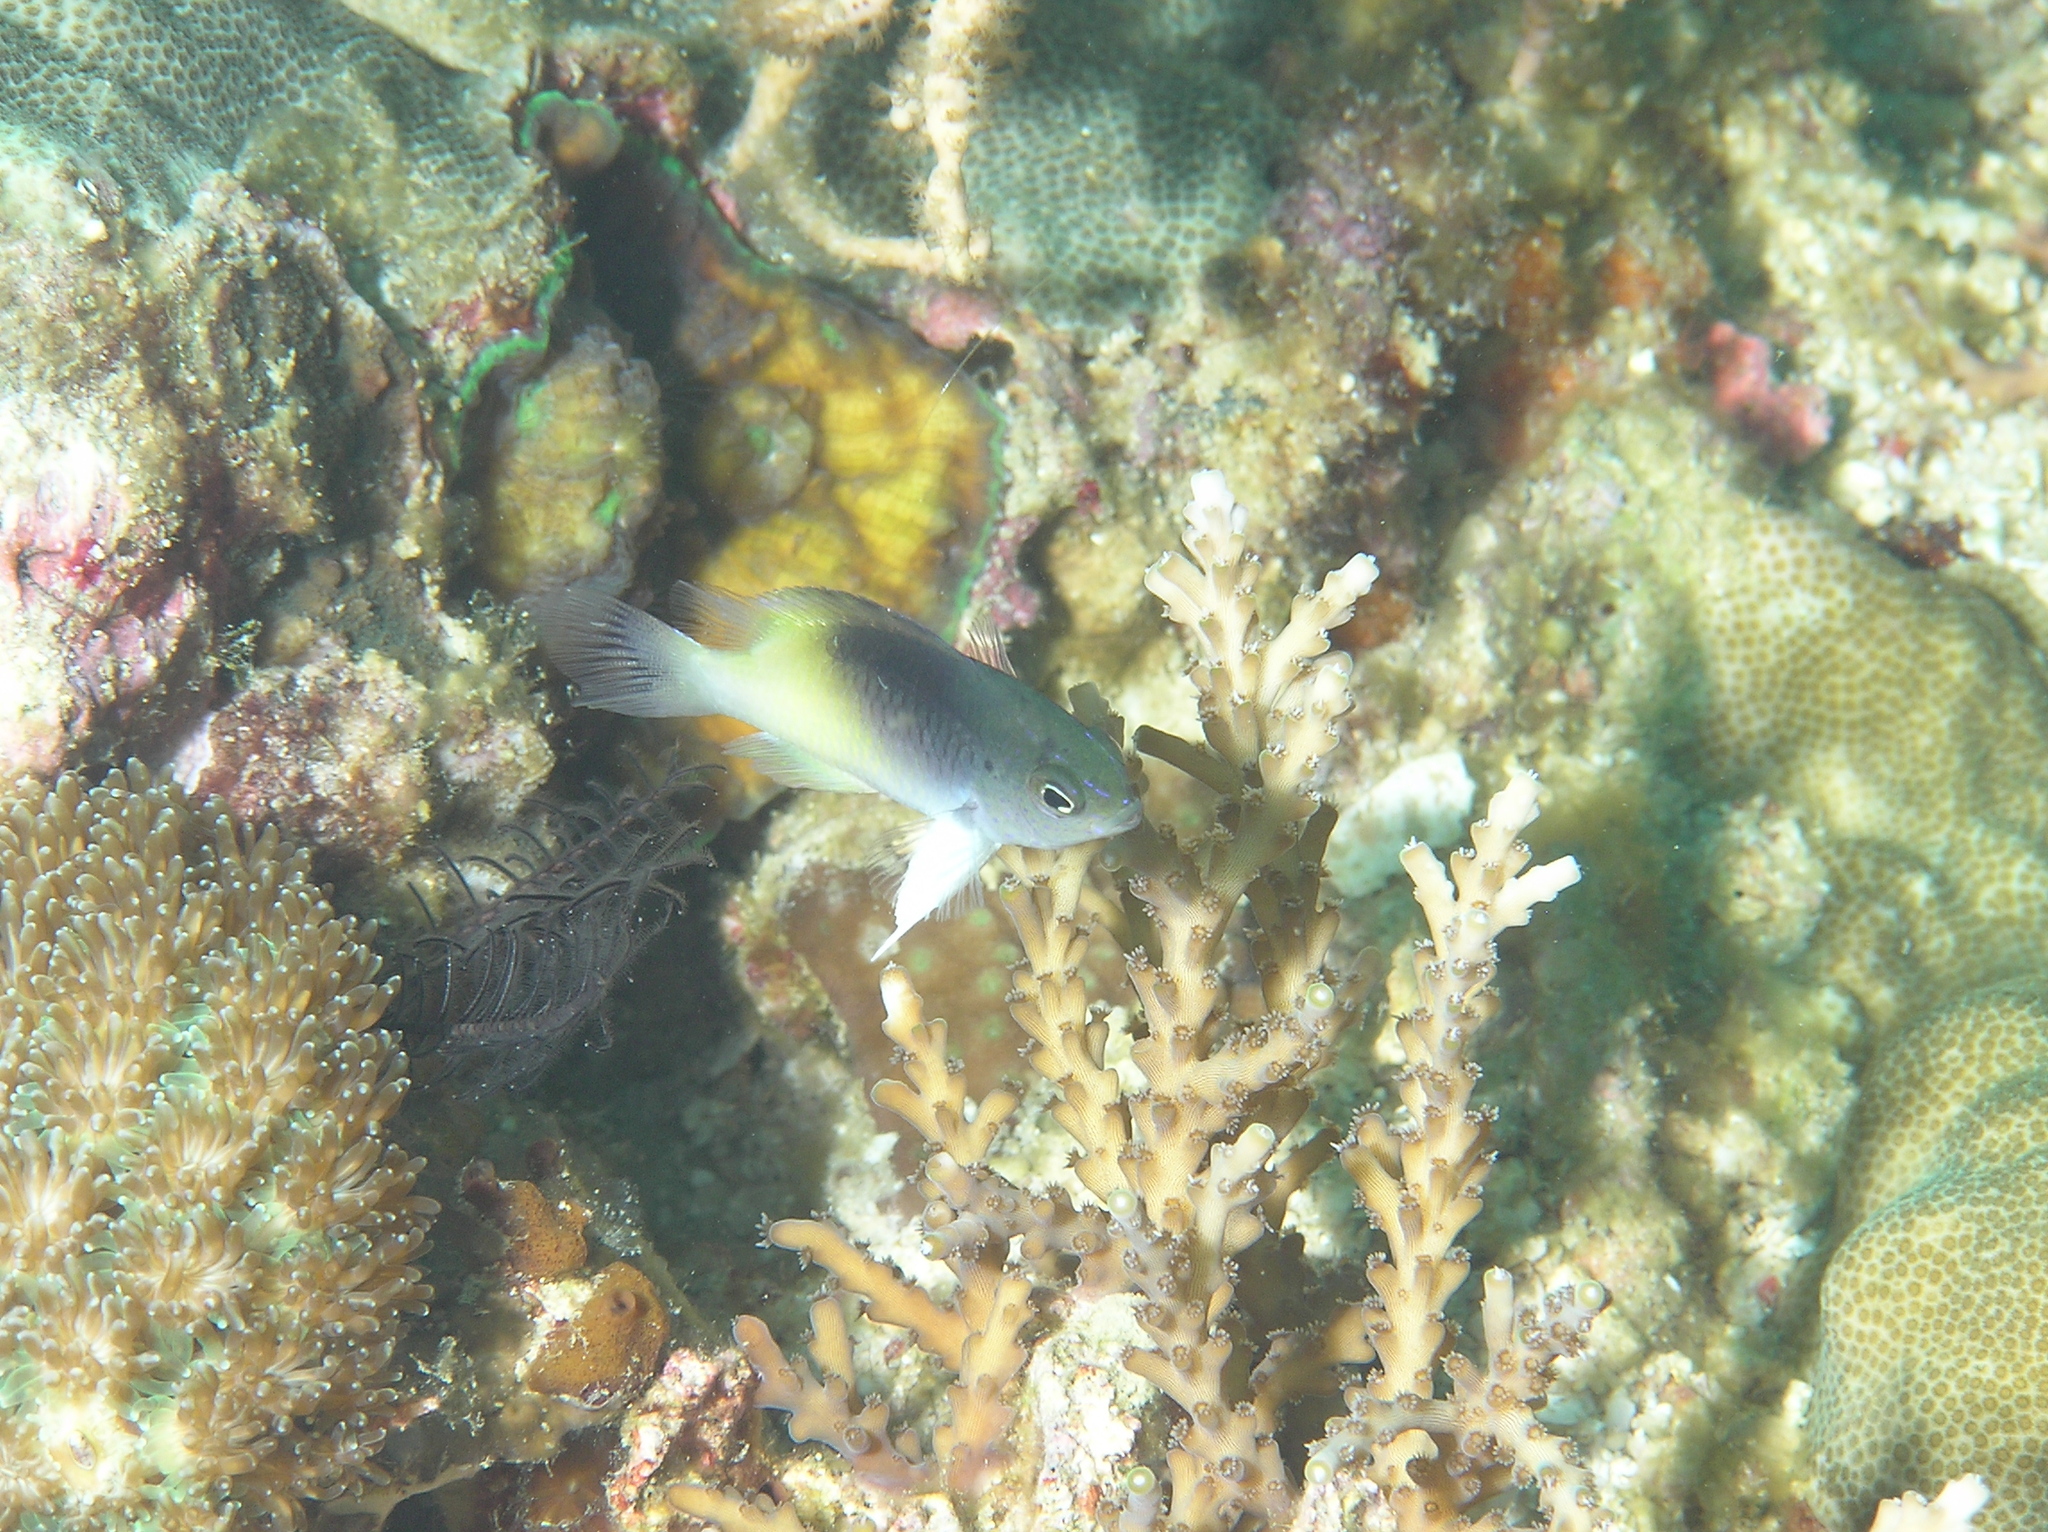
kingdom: Animalia
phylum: Chordata
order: Perciformes
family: Pomacentridae
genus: Chrysiptera
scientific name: Chrysiptera rollandi
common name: Rolland's demoiselle
